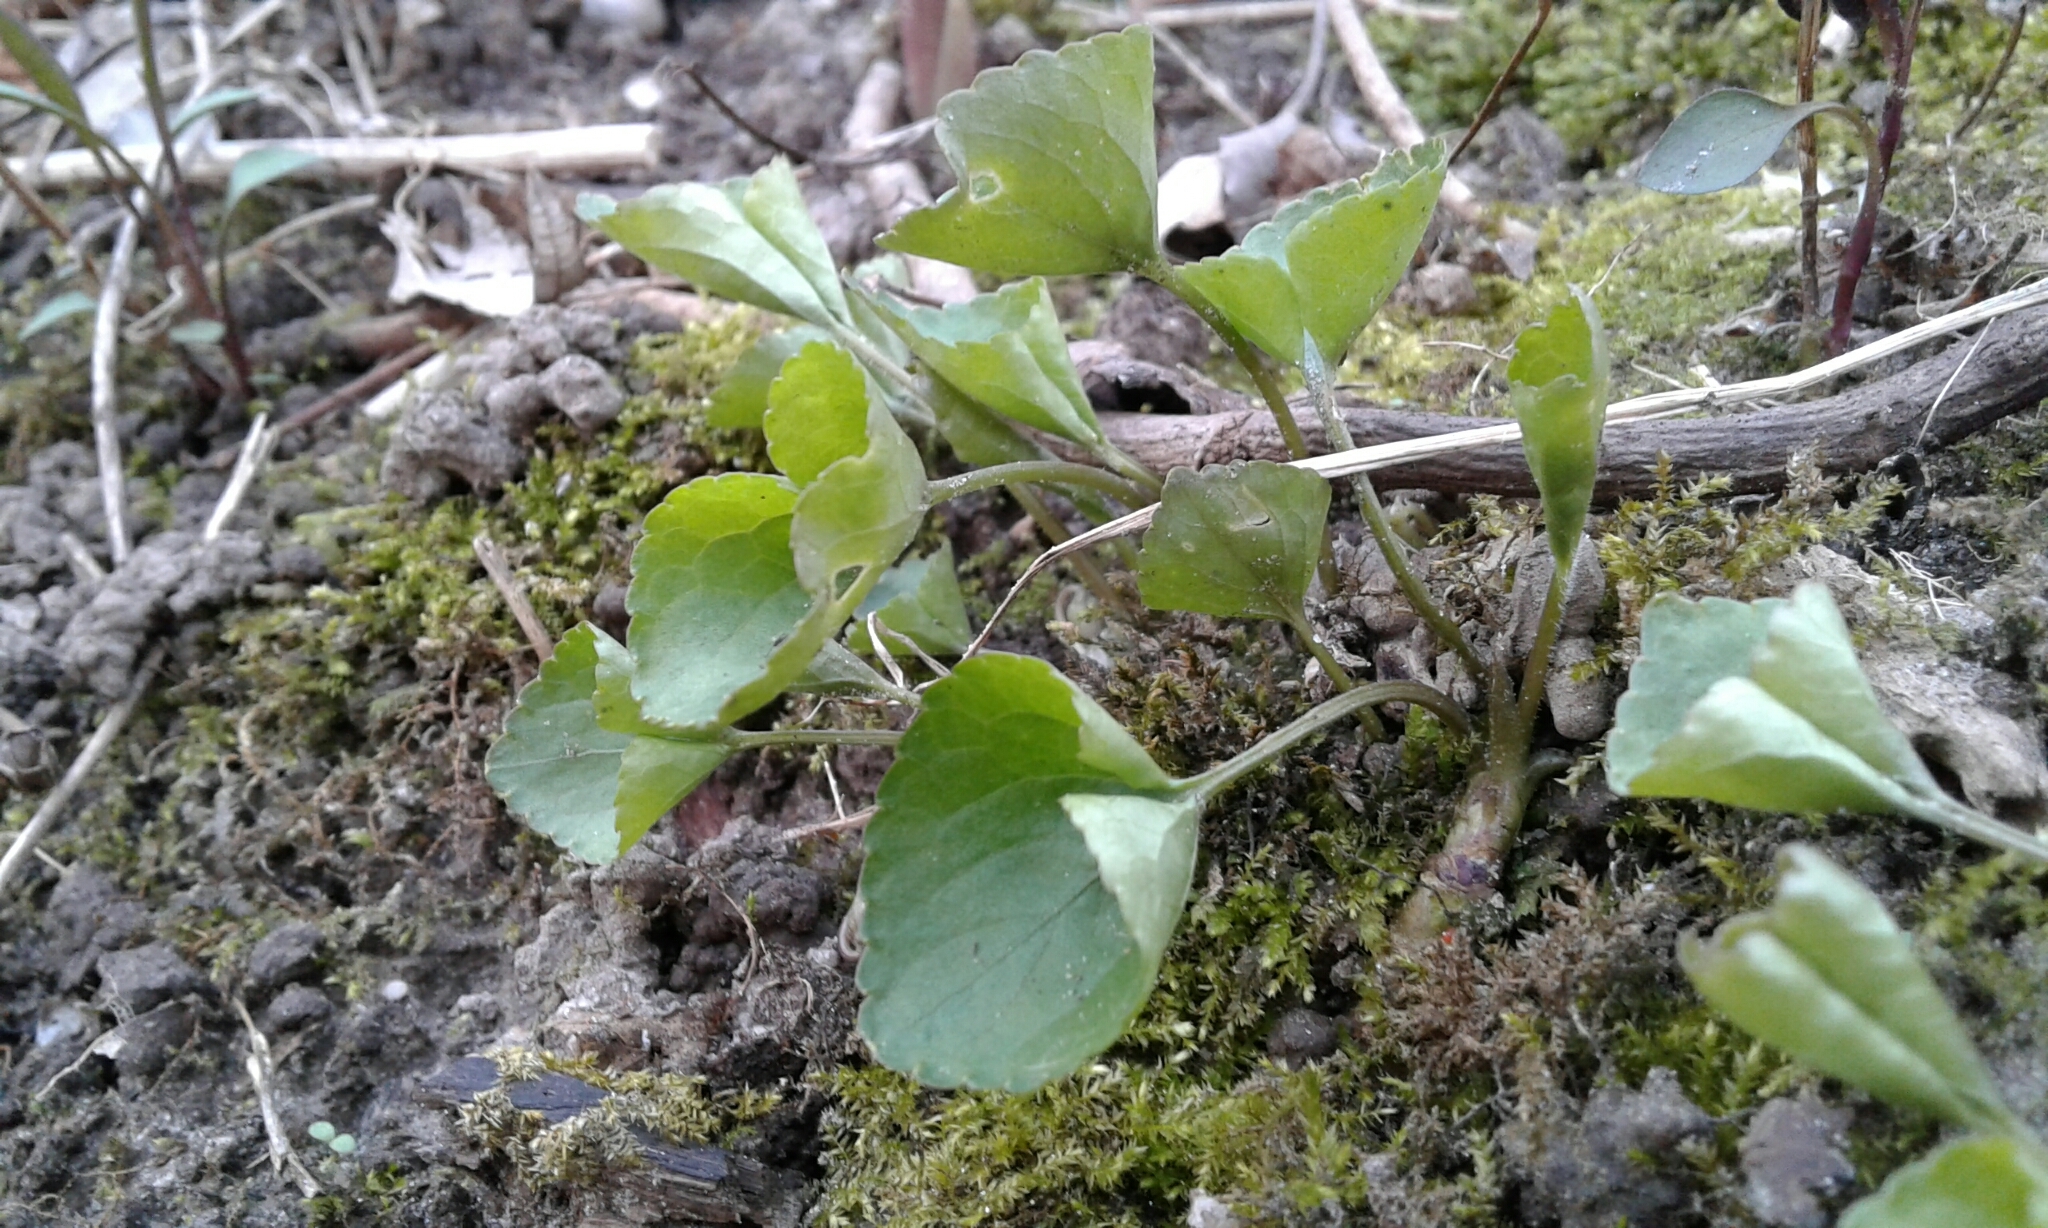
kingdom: Plantae
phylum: Tracheophyta
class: Magnoliopsida
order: Malpighiales
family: Violaceae
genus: Viola
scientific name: Viola
